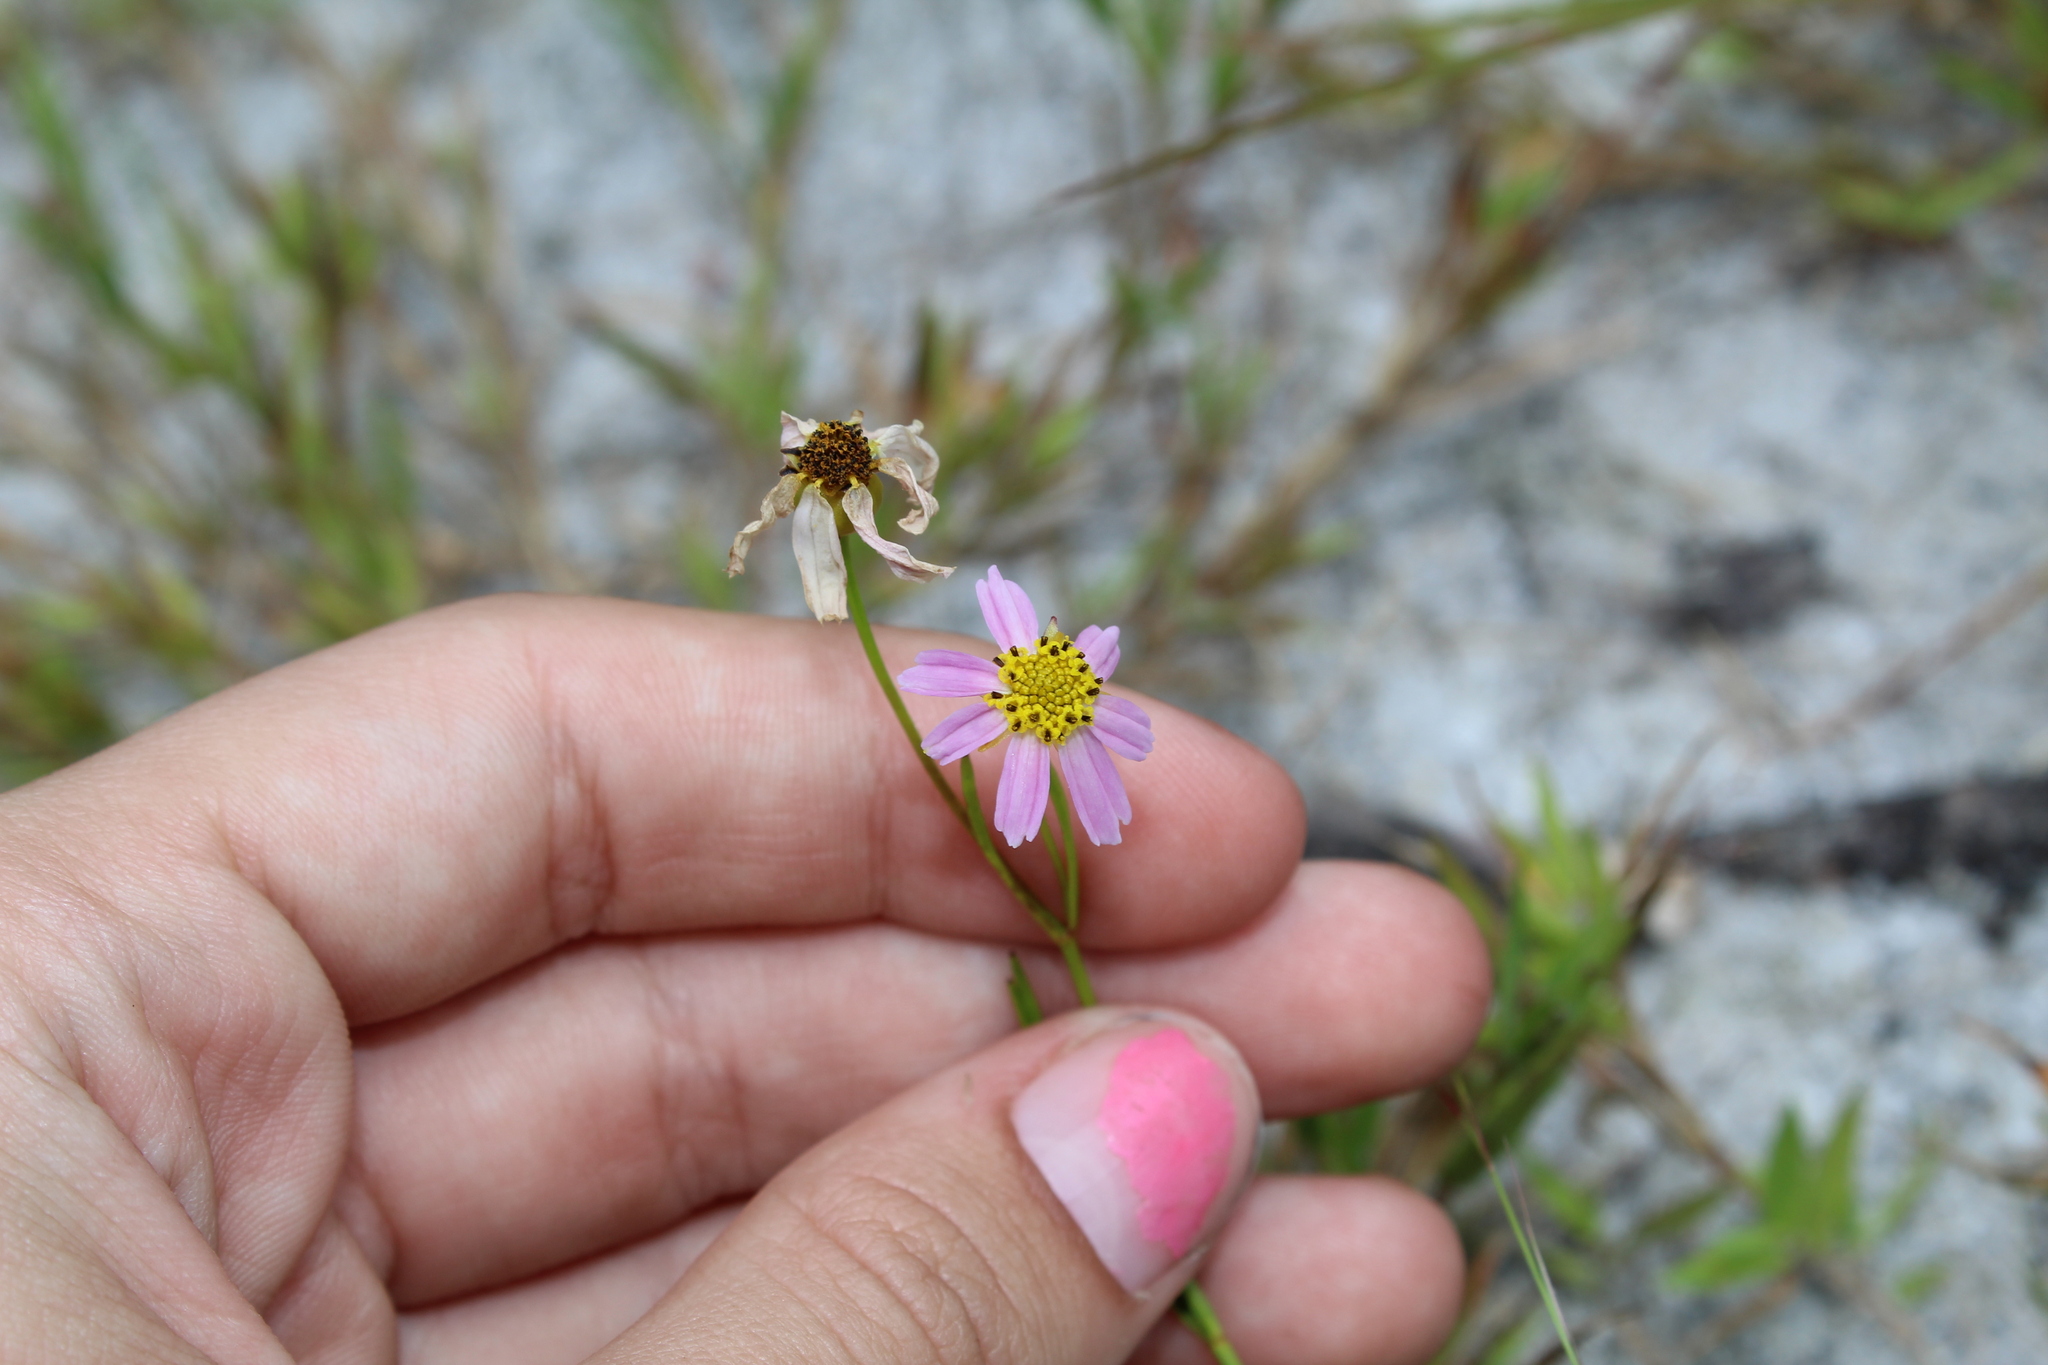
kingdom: Plantae
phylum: Tracheophyta
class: Magnoliopsida
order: Asterales
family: Asteraceae
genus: Coreopsis
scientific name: Coreopsis rosea
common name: Pink coreopsis
